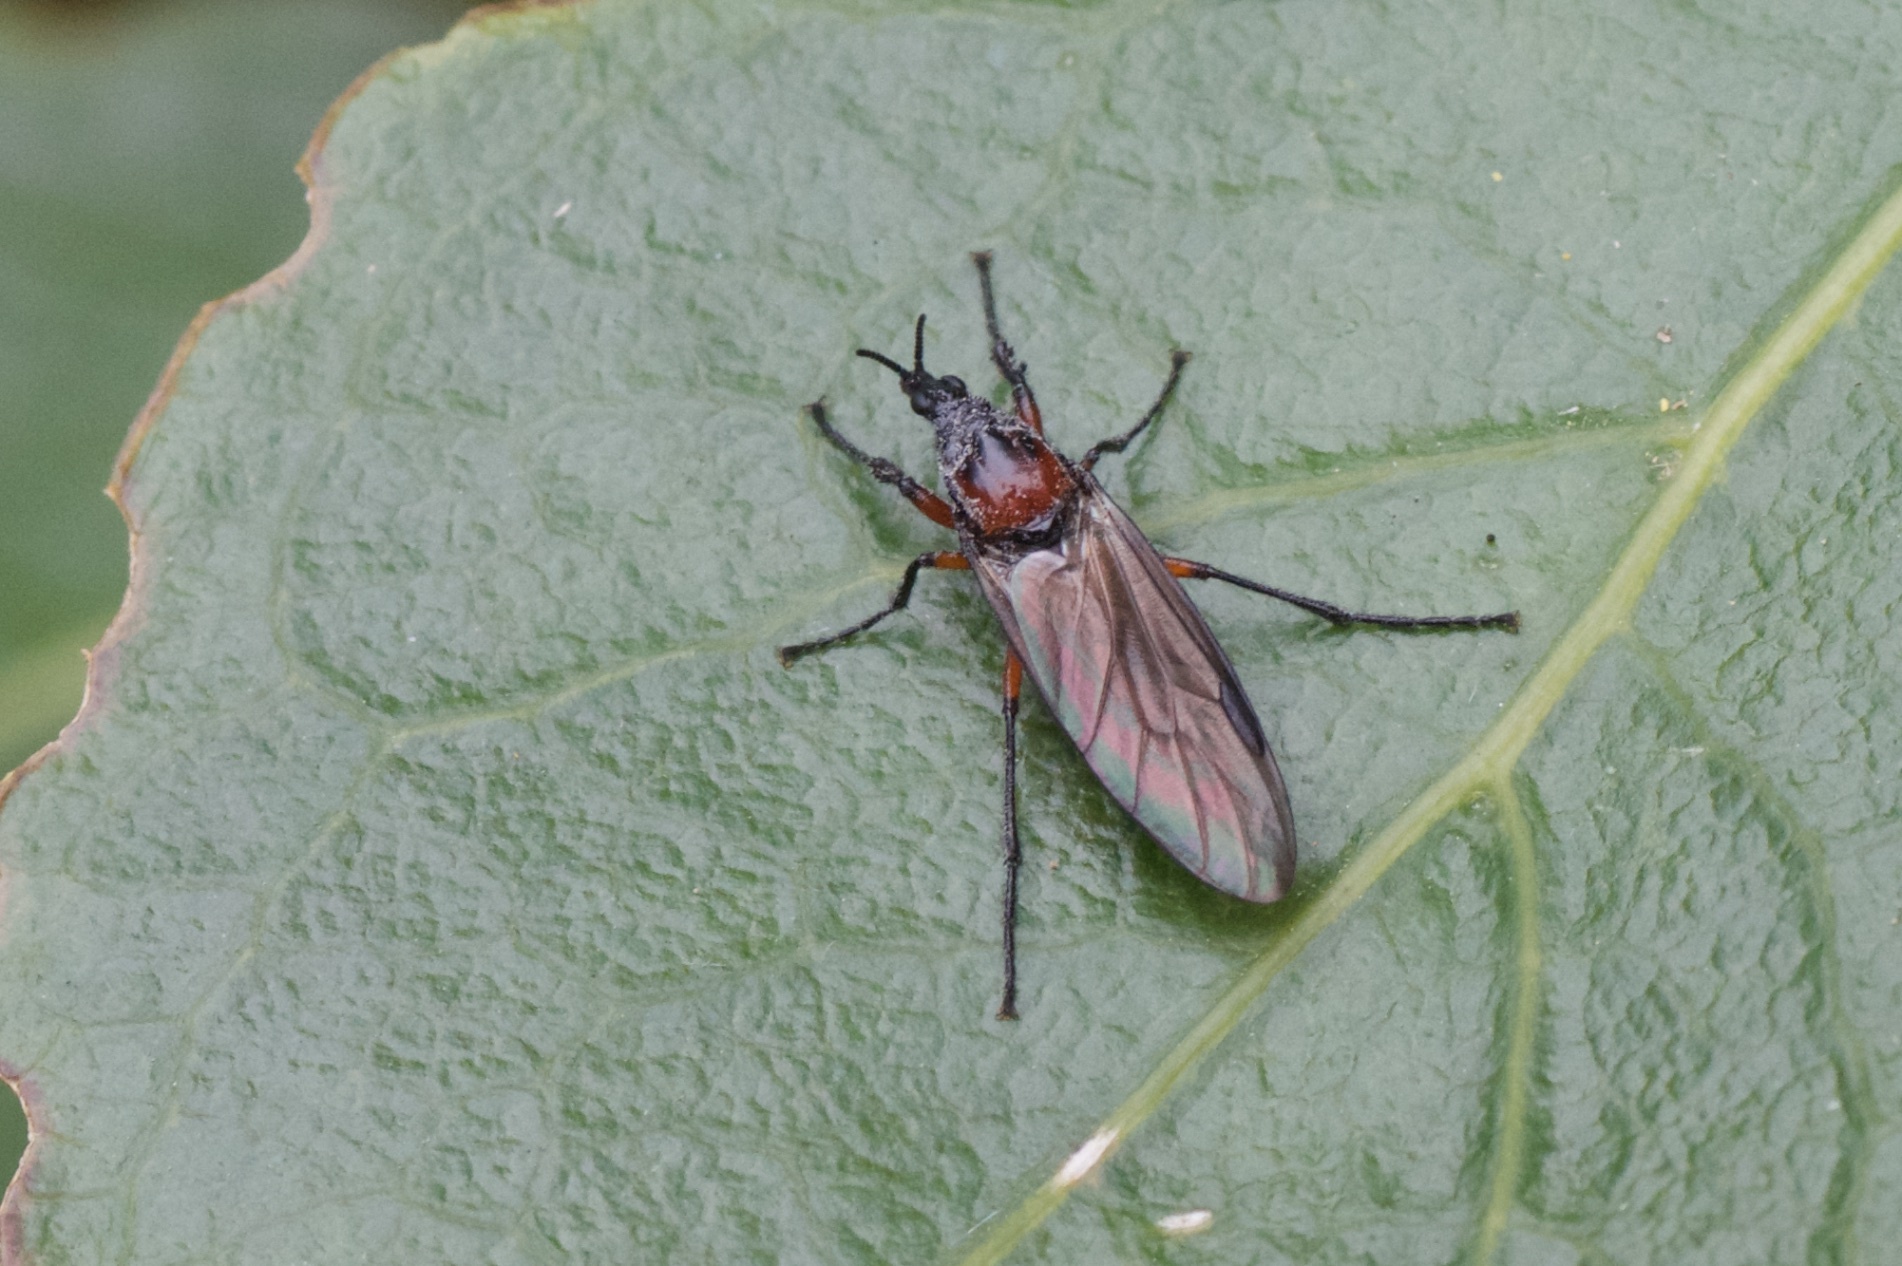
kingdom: Animalia
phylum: Arthropoda
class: Insecta
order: Diptera
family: Bibionidae
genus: Dilophus
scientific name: Dilophus nigrostigma
